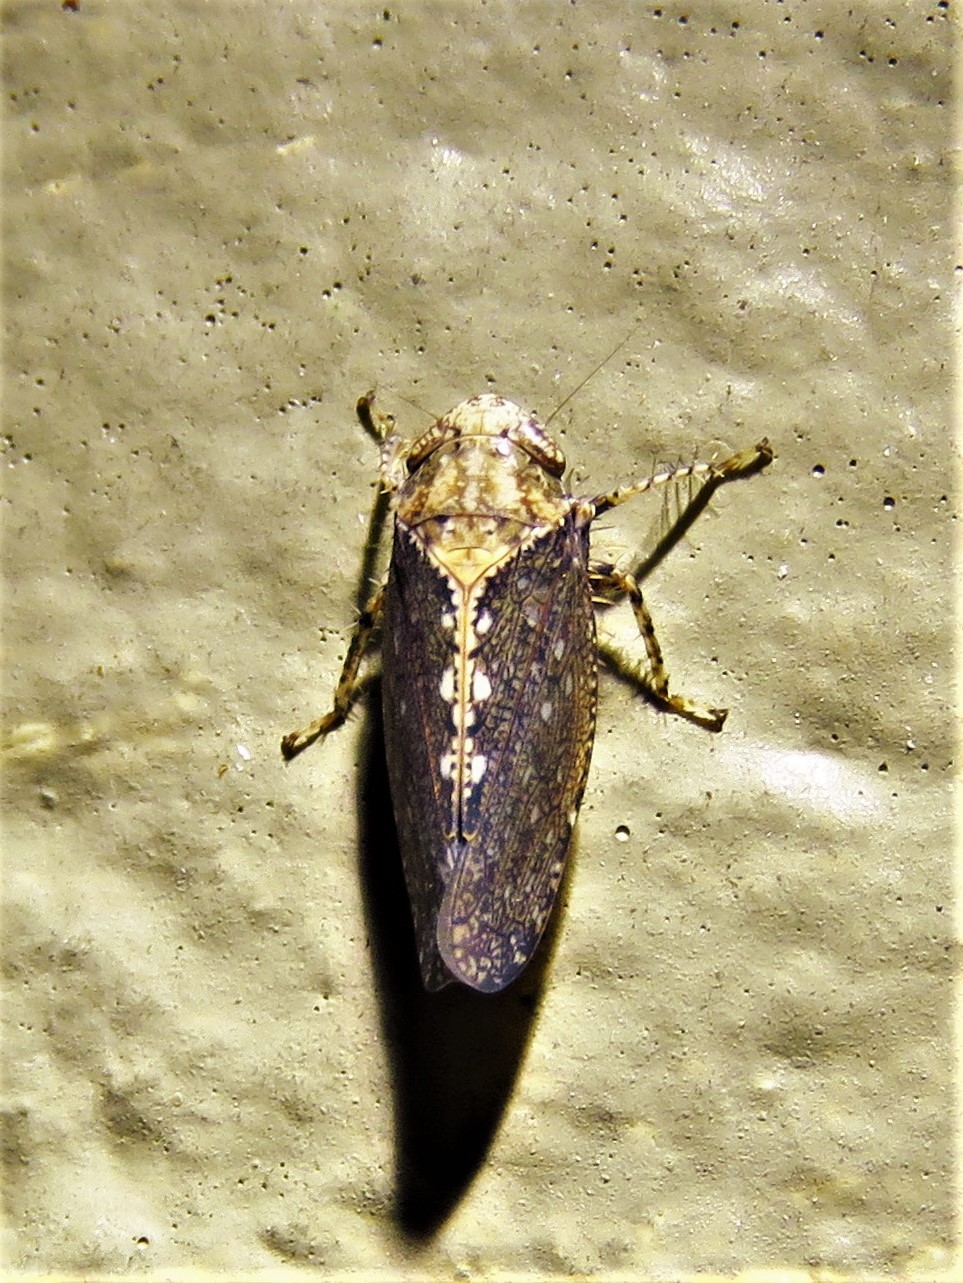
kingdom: Animalia
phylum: Arthropoda
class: Insecta
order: Hemiptera
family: Cicadellidae
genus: Excultanus
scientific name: Excultanus excultus
